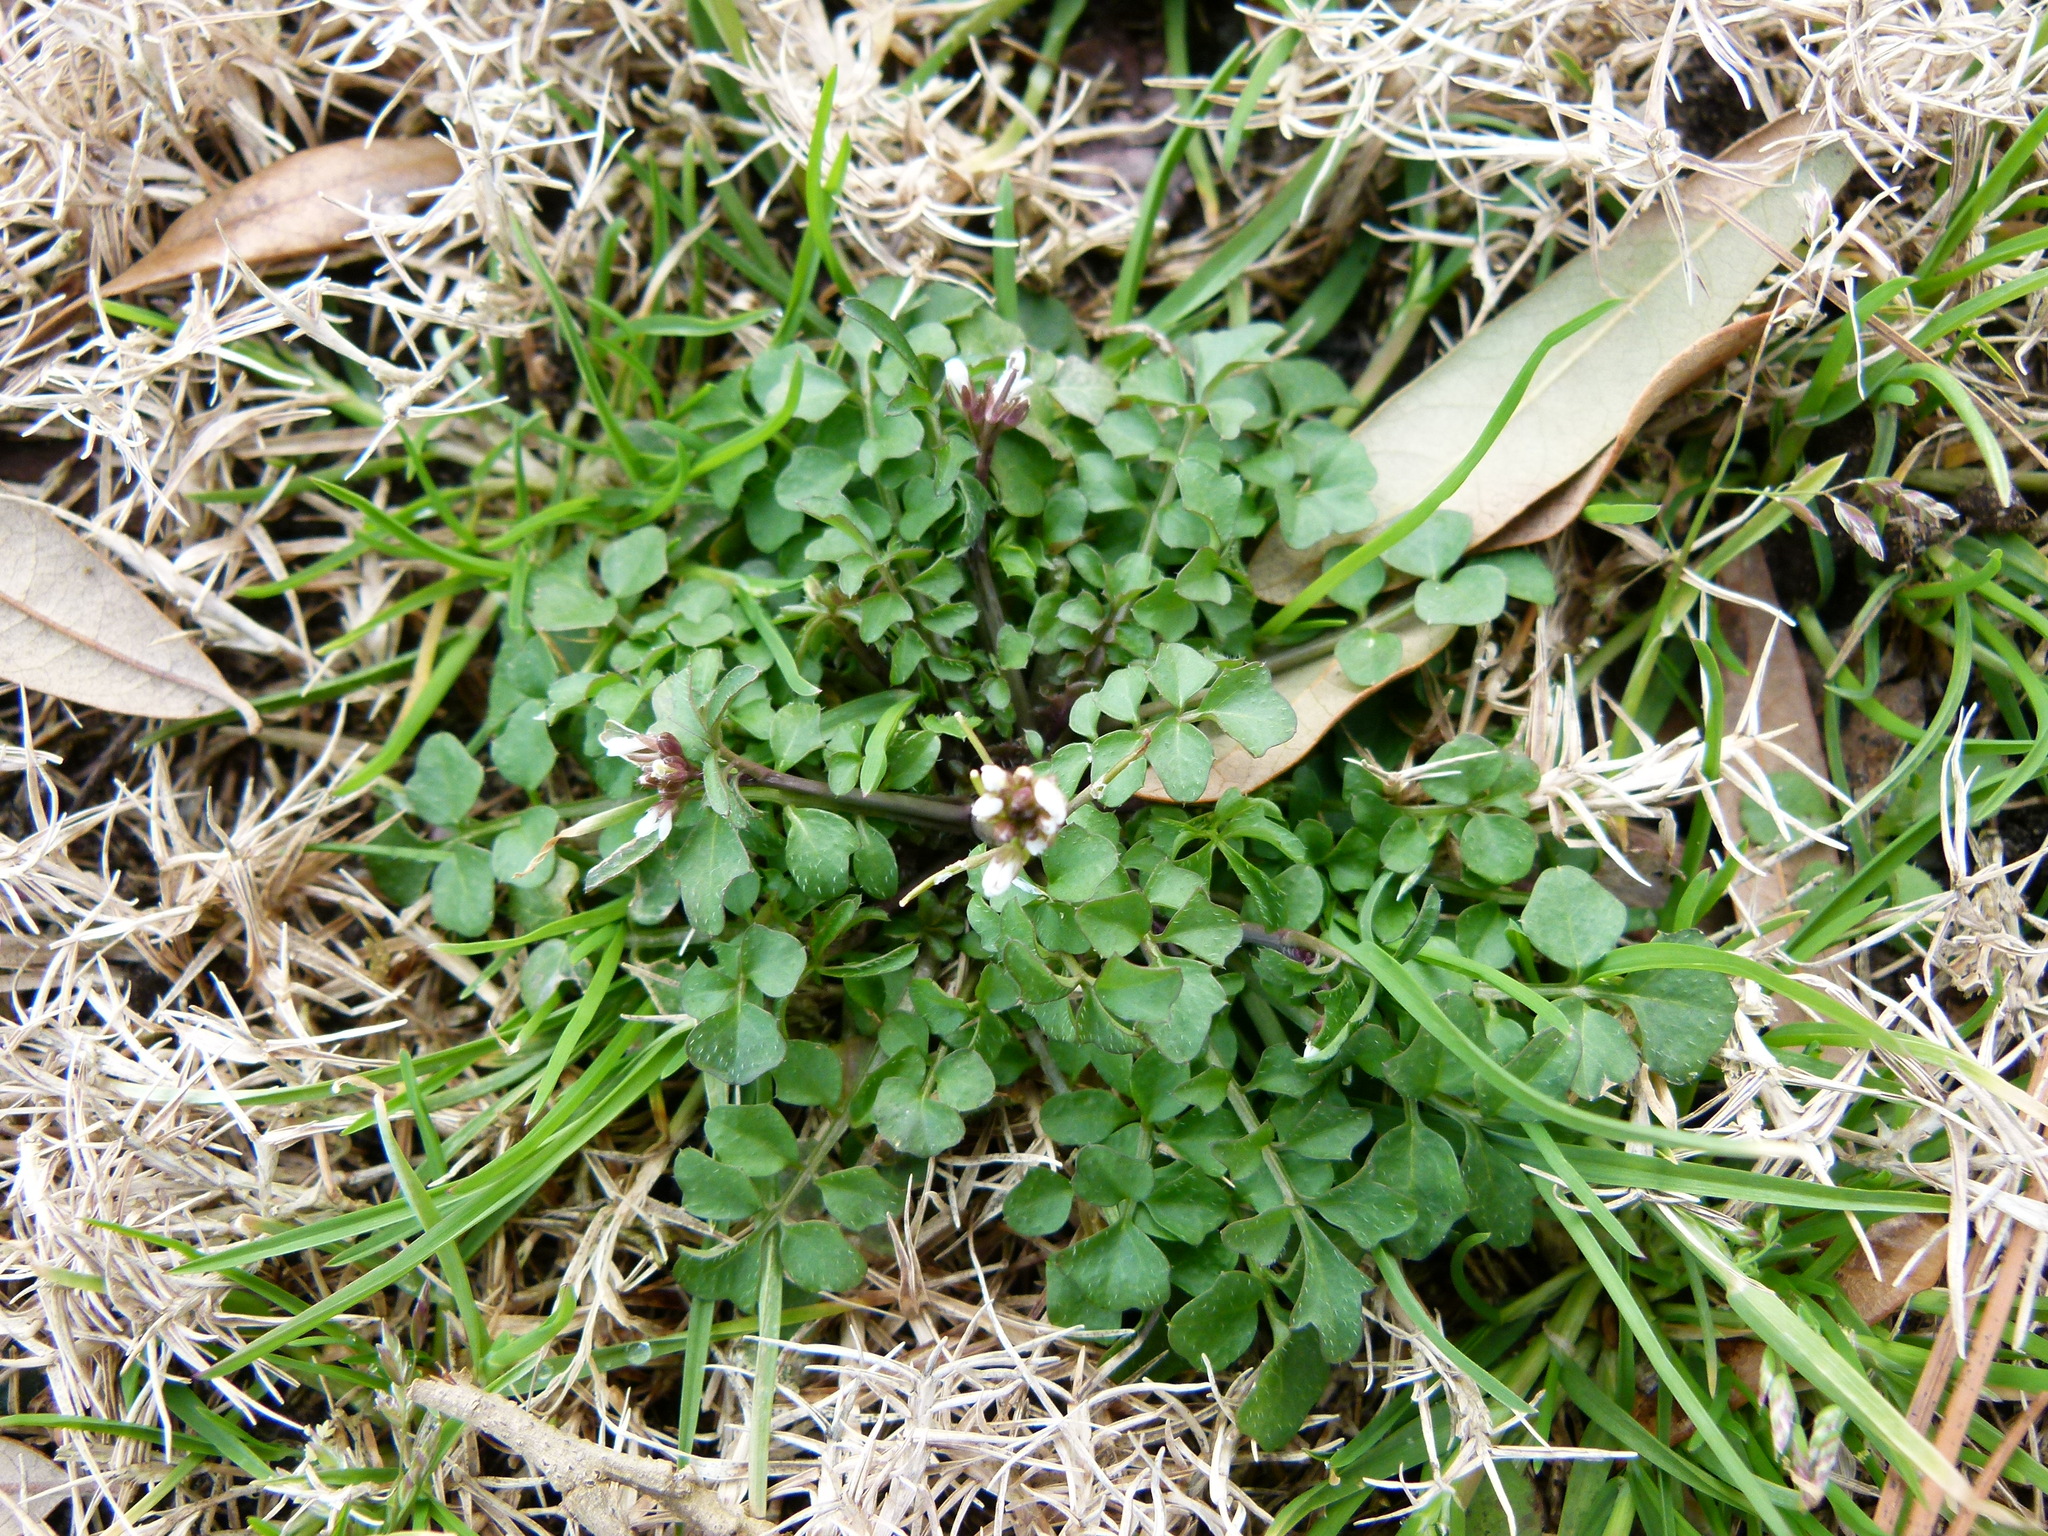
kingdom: Plantae
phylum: Tracheophyta
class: Magnoliopsida
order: Brassicales
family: Brassicaceae
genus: Cardamine
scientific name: Cardamine hirsuta
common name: Hairy bittercress
